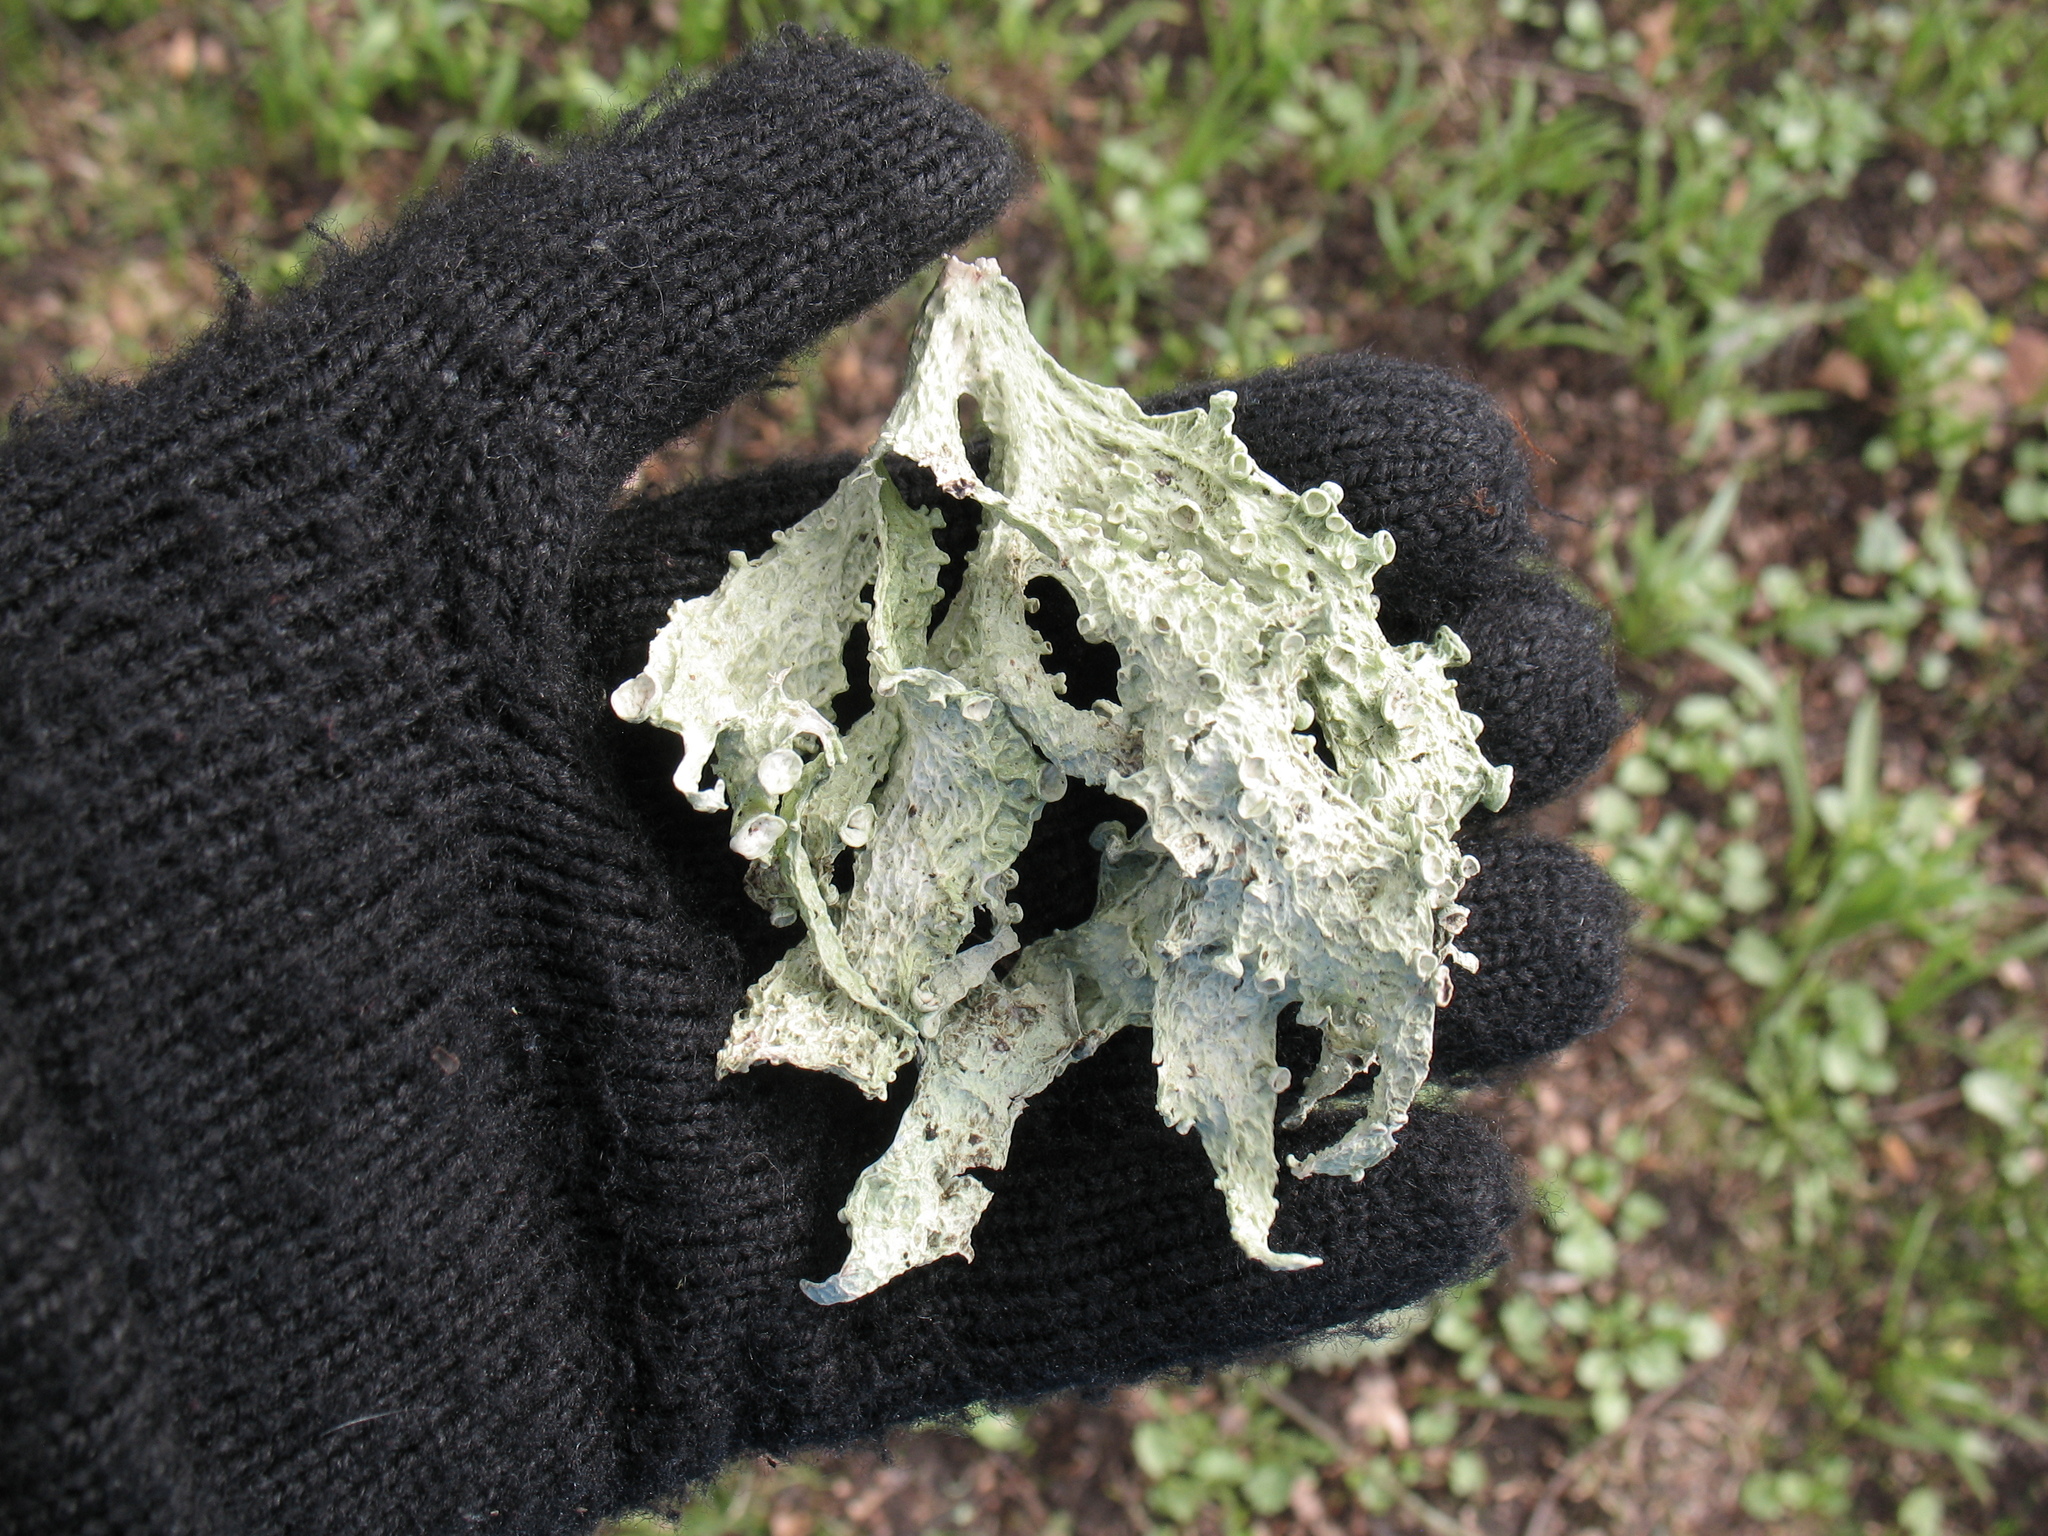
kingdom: Fungi
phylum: Ascomycota
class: Lecanoromycetes
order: Lecanorales
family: Ramalinaceae
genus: Ramalina
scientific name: Ramalina fraxinea
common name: Cartilage lichen
